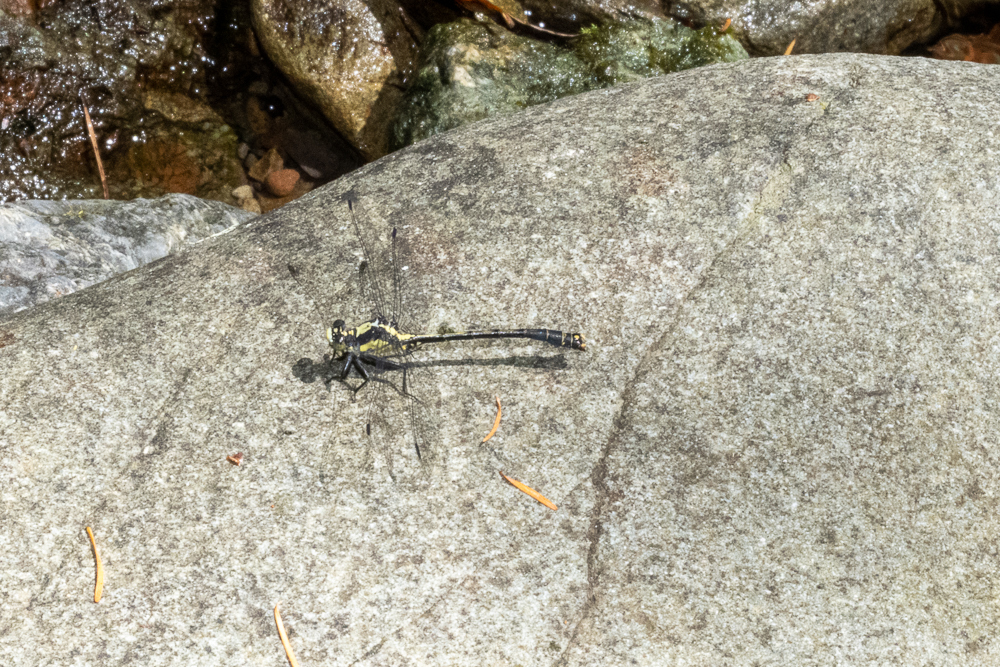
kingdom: Animalia
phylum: Arthropoda
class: Insecta
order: Odonata
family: Gomphidae
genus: Octogomphus
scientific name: Octogomphus specularis
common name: Grappletail
